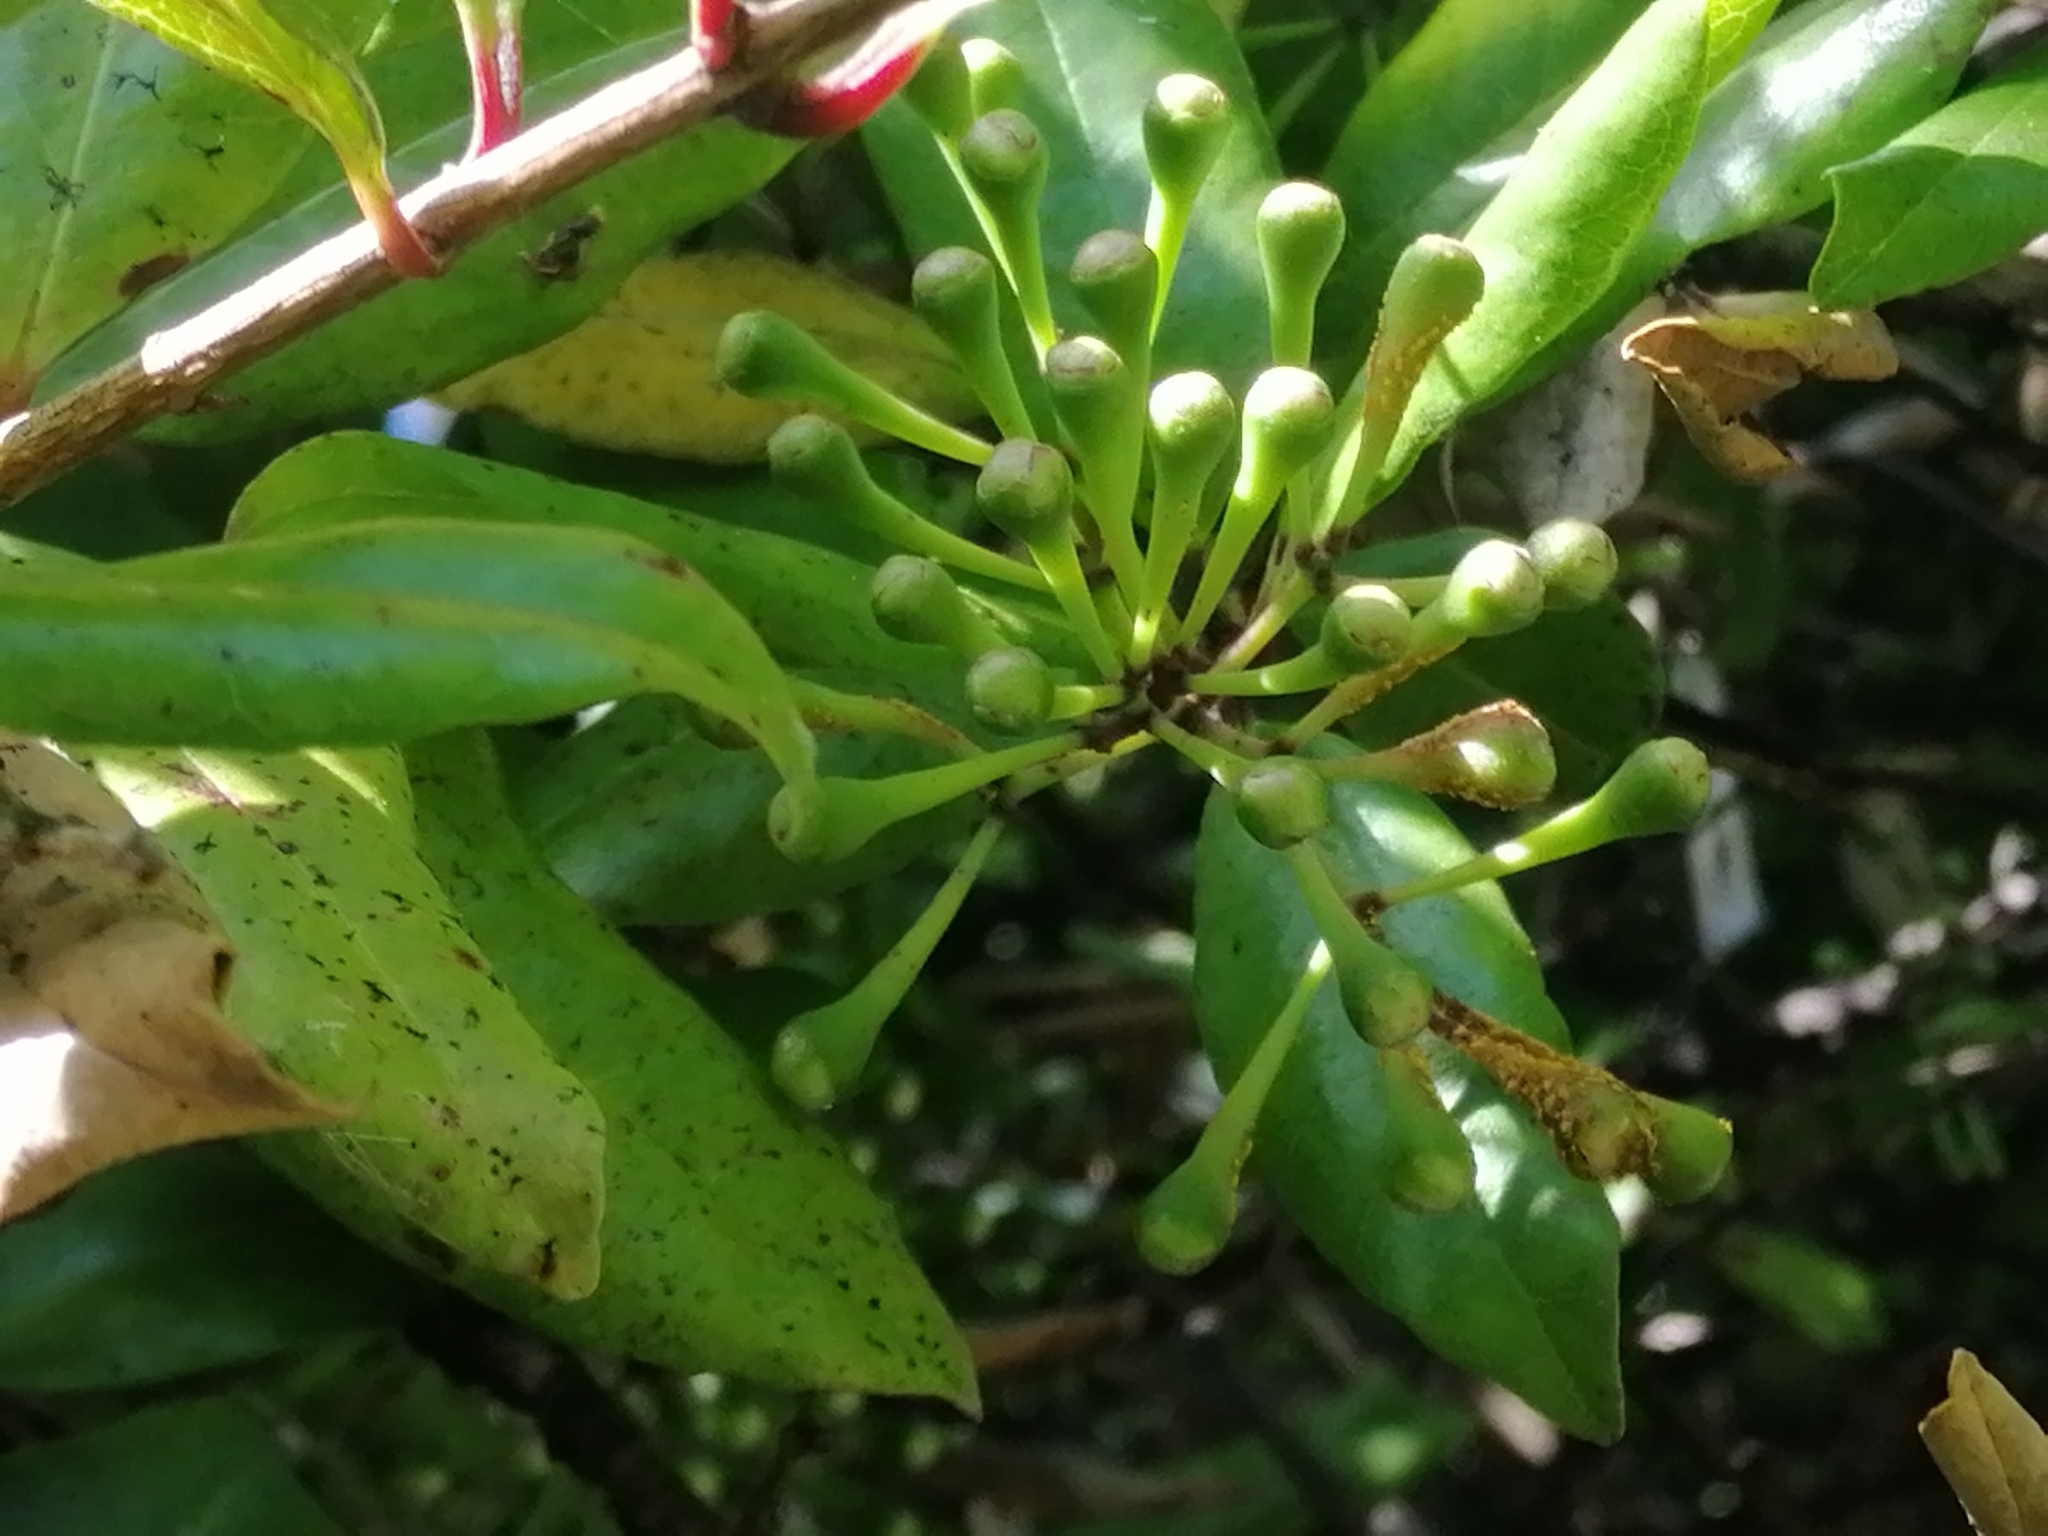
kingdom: Fungi
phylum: Basidiomycota
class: Pucciniomycetes
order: Pucciniales
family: Sphaerophragmiaceae
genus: Austropuccinia
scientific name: Austropuccinia psidii
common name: Myrtle rust
